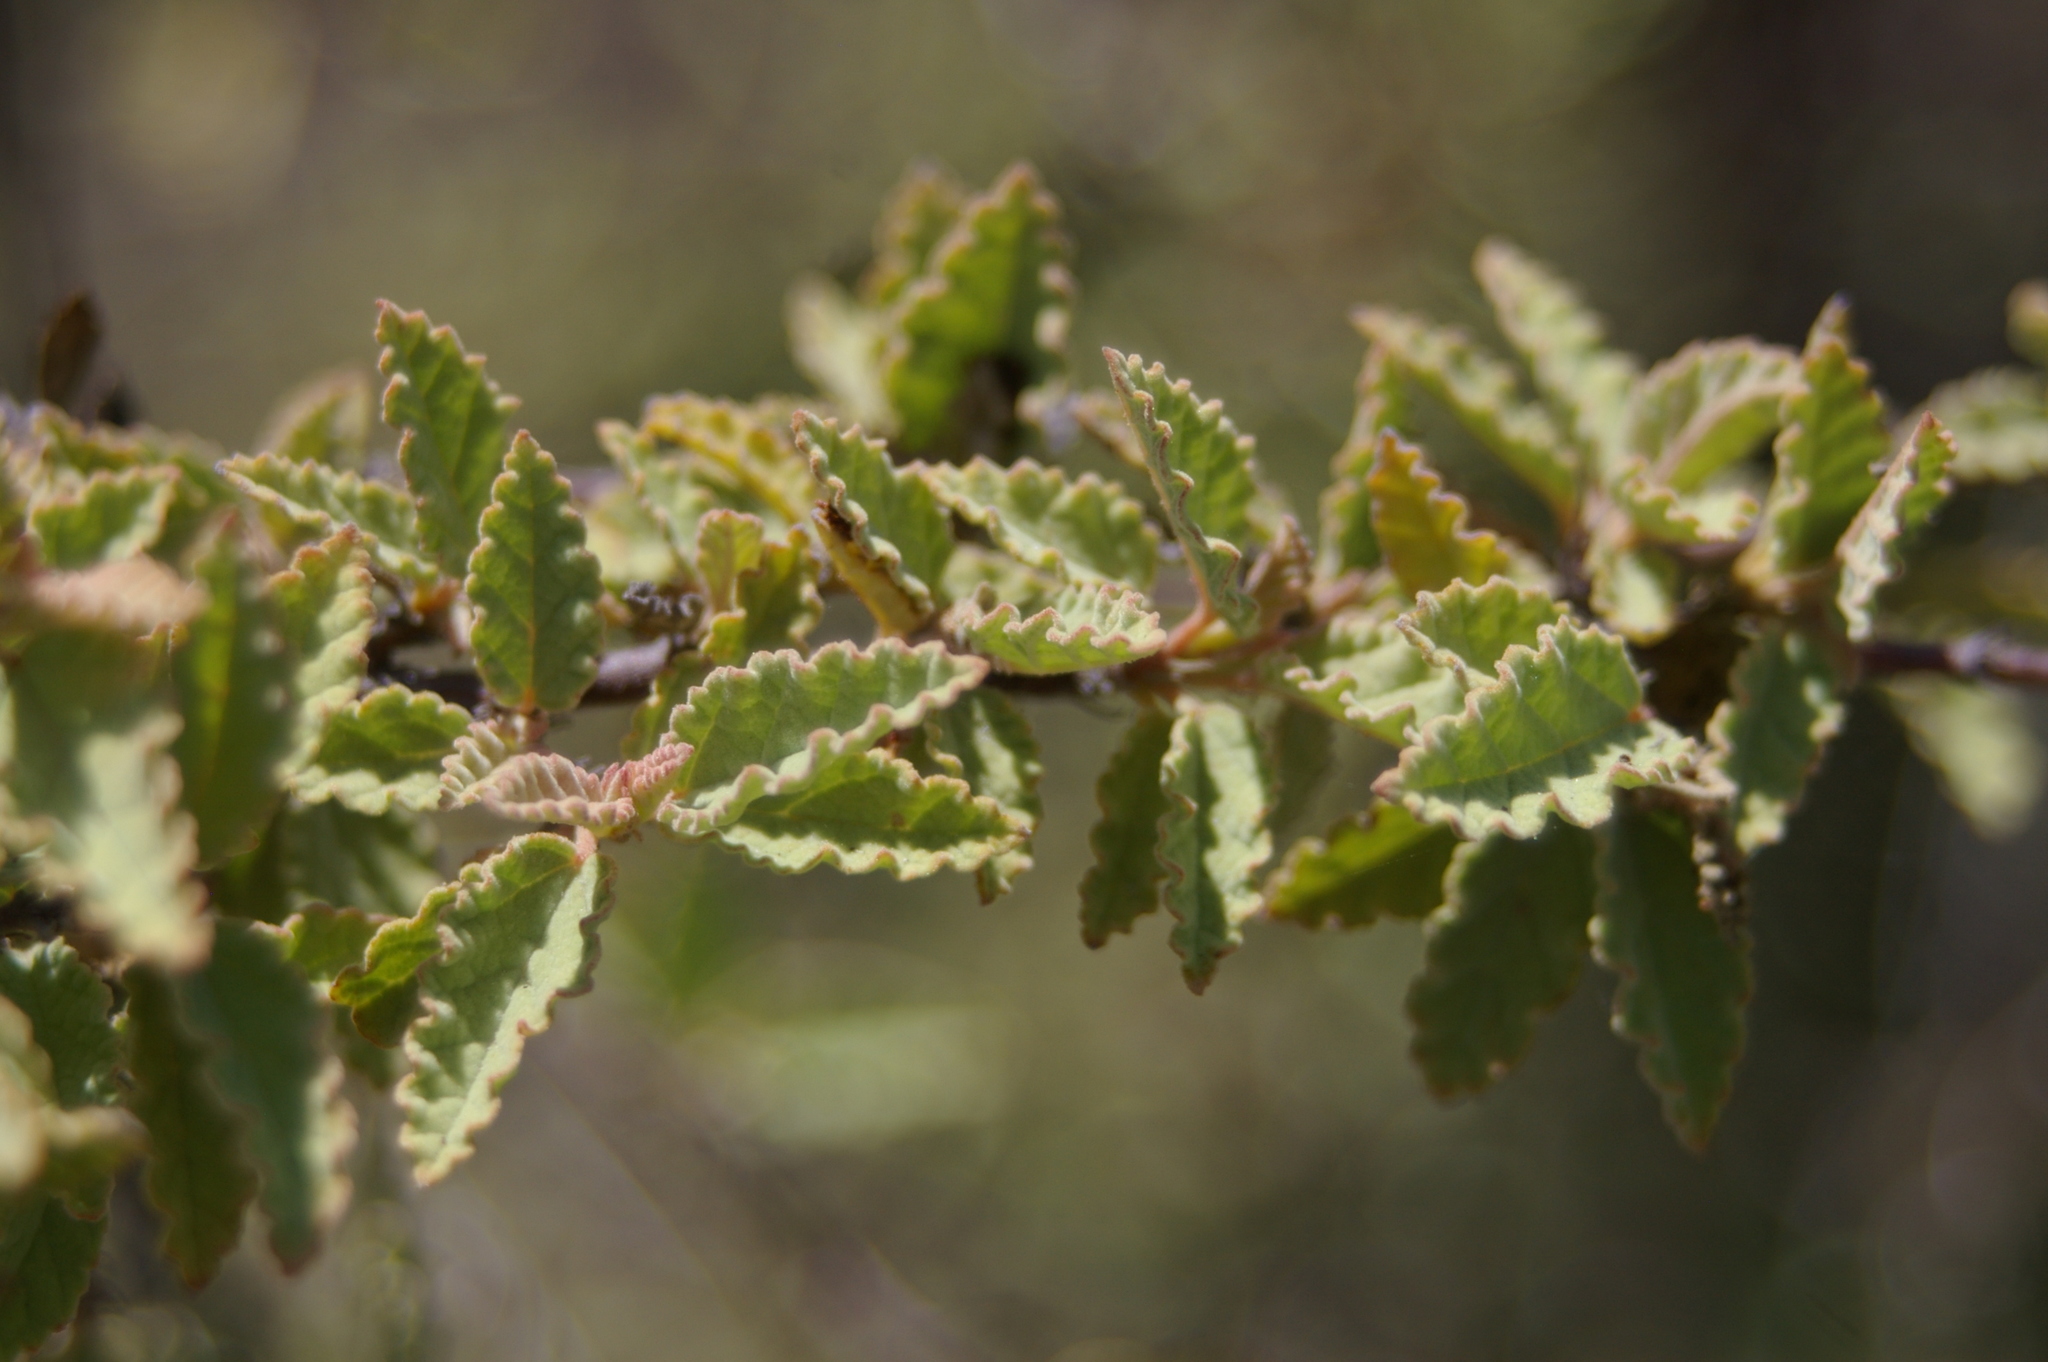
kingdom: Plantae
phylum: Tracheophyta
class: Magnoliopsida
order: Malvales
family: Malvaceae
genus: Waltheria
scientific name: Waltheria ovata
